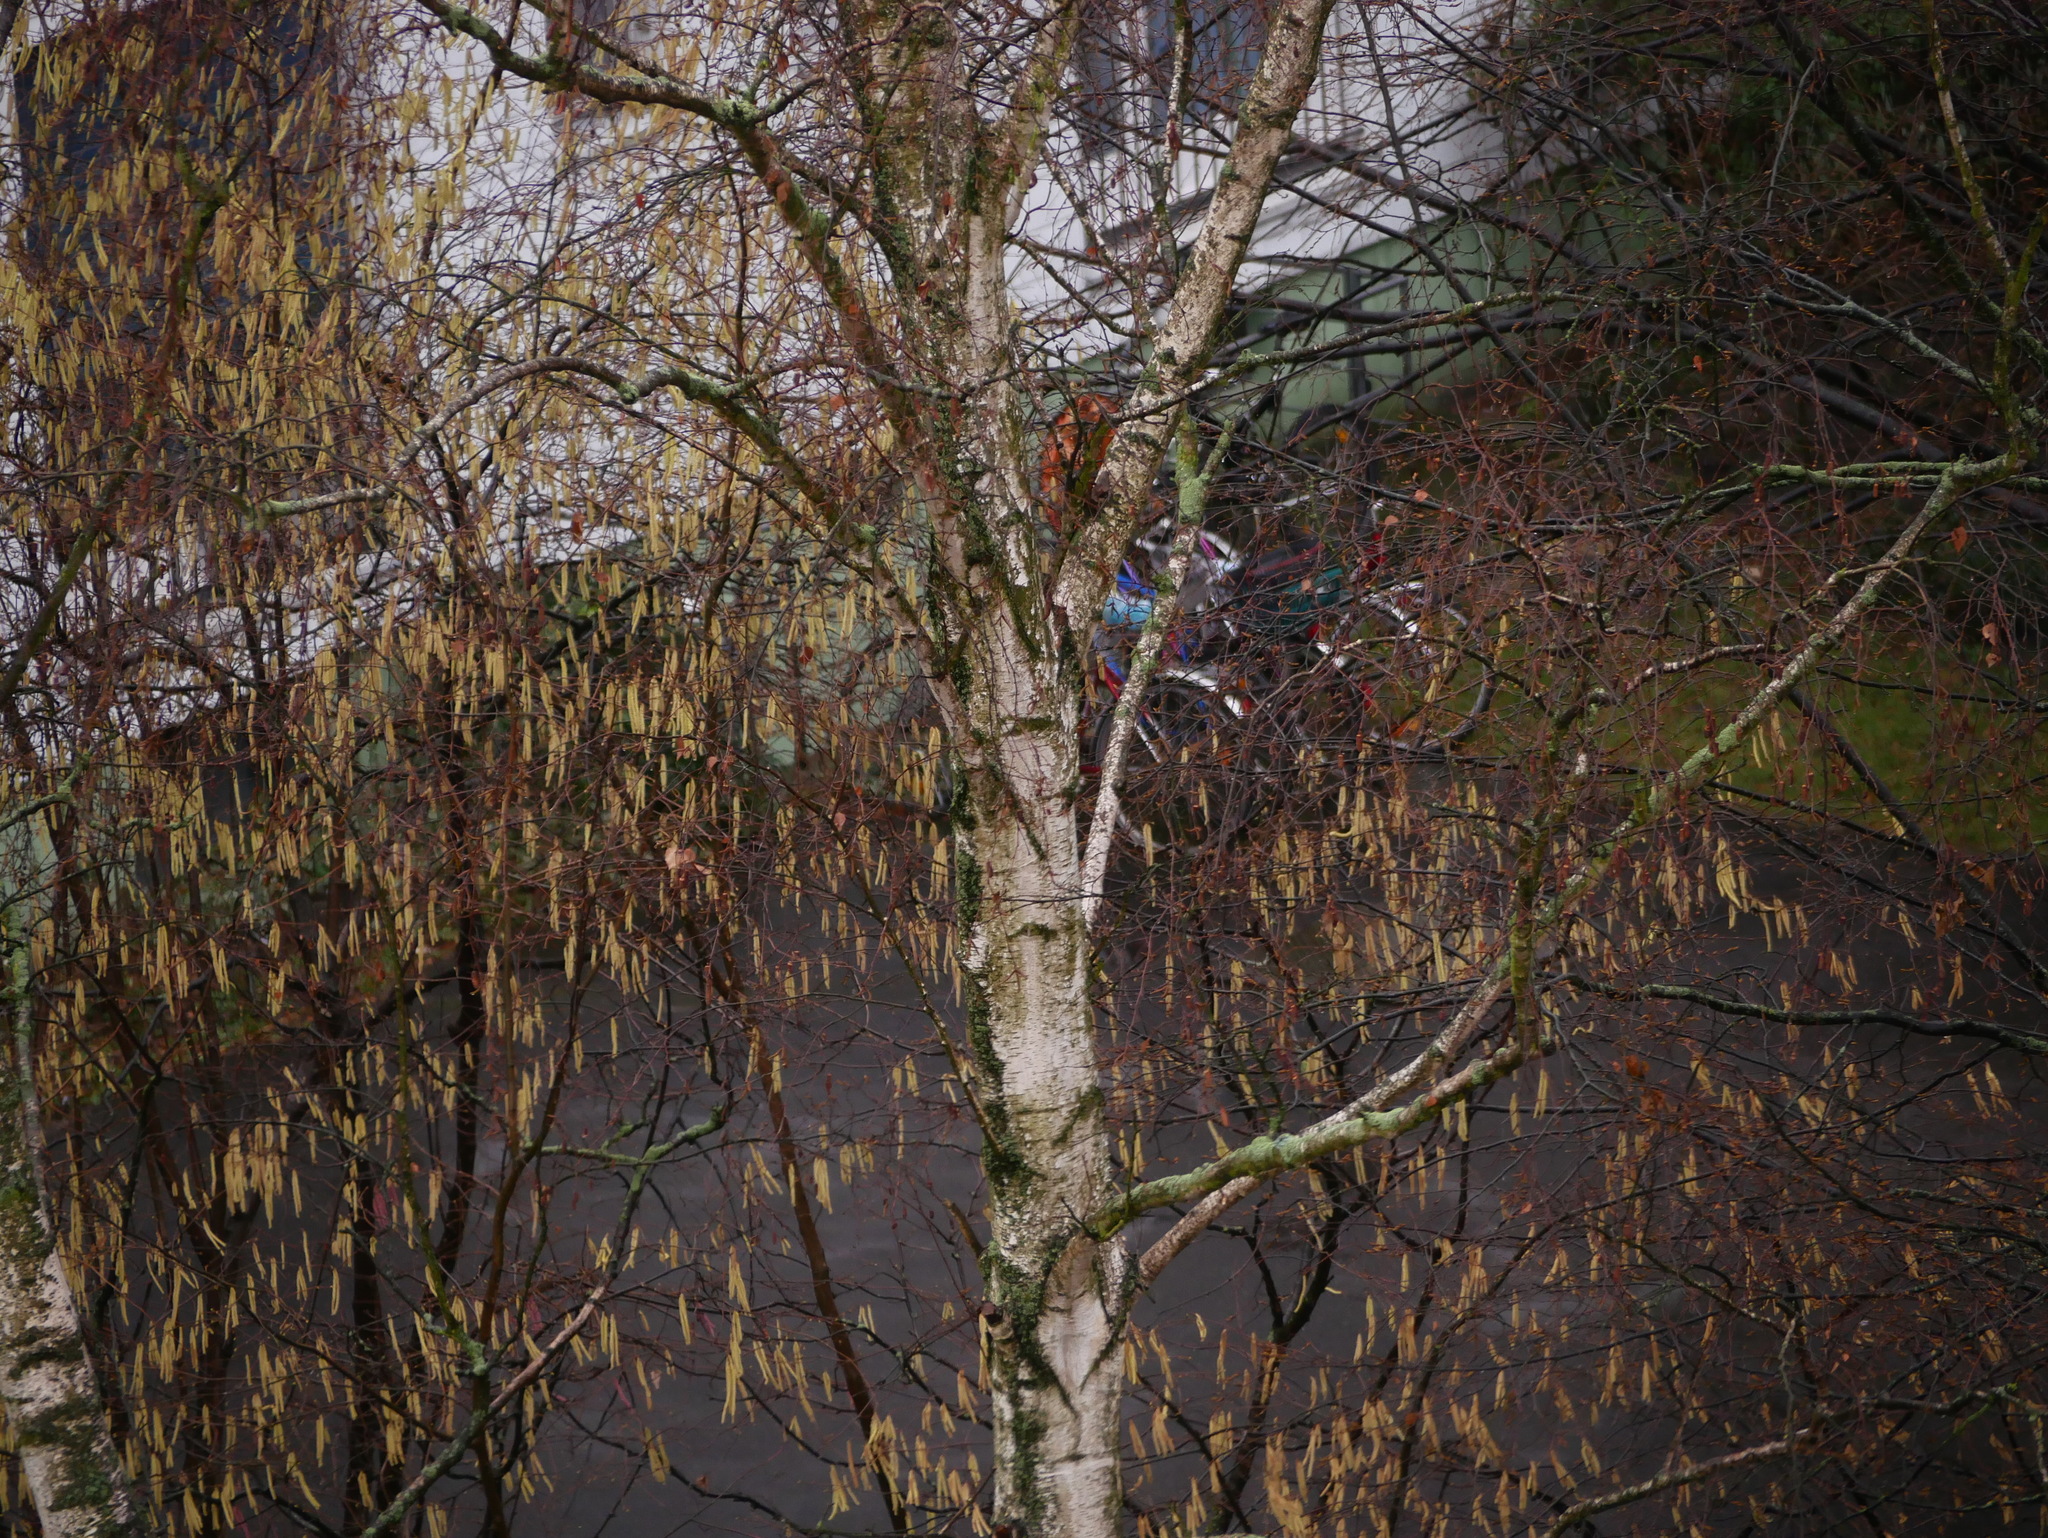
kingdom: Plantae
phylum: Tracheophyta
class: Magnoliopsida
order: Fagales
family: Betulaceae
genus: Betula
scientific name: Betula pendula
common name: Silver birch
